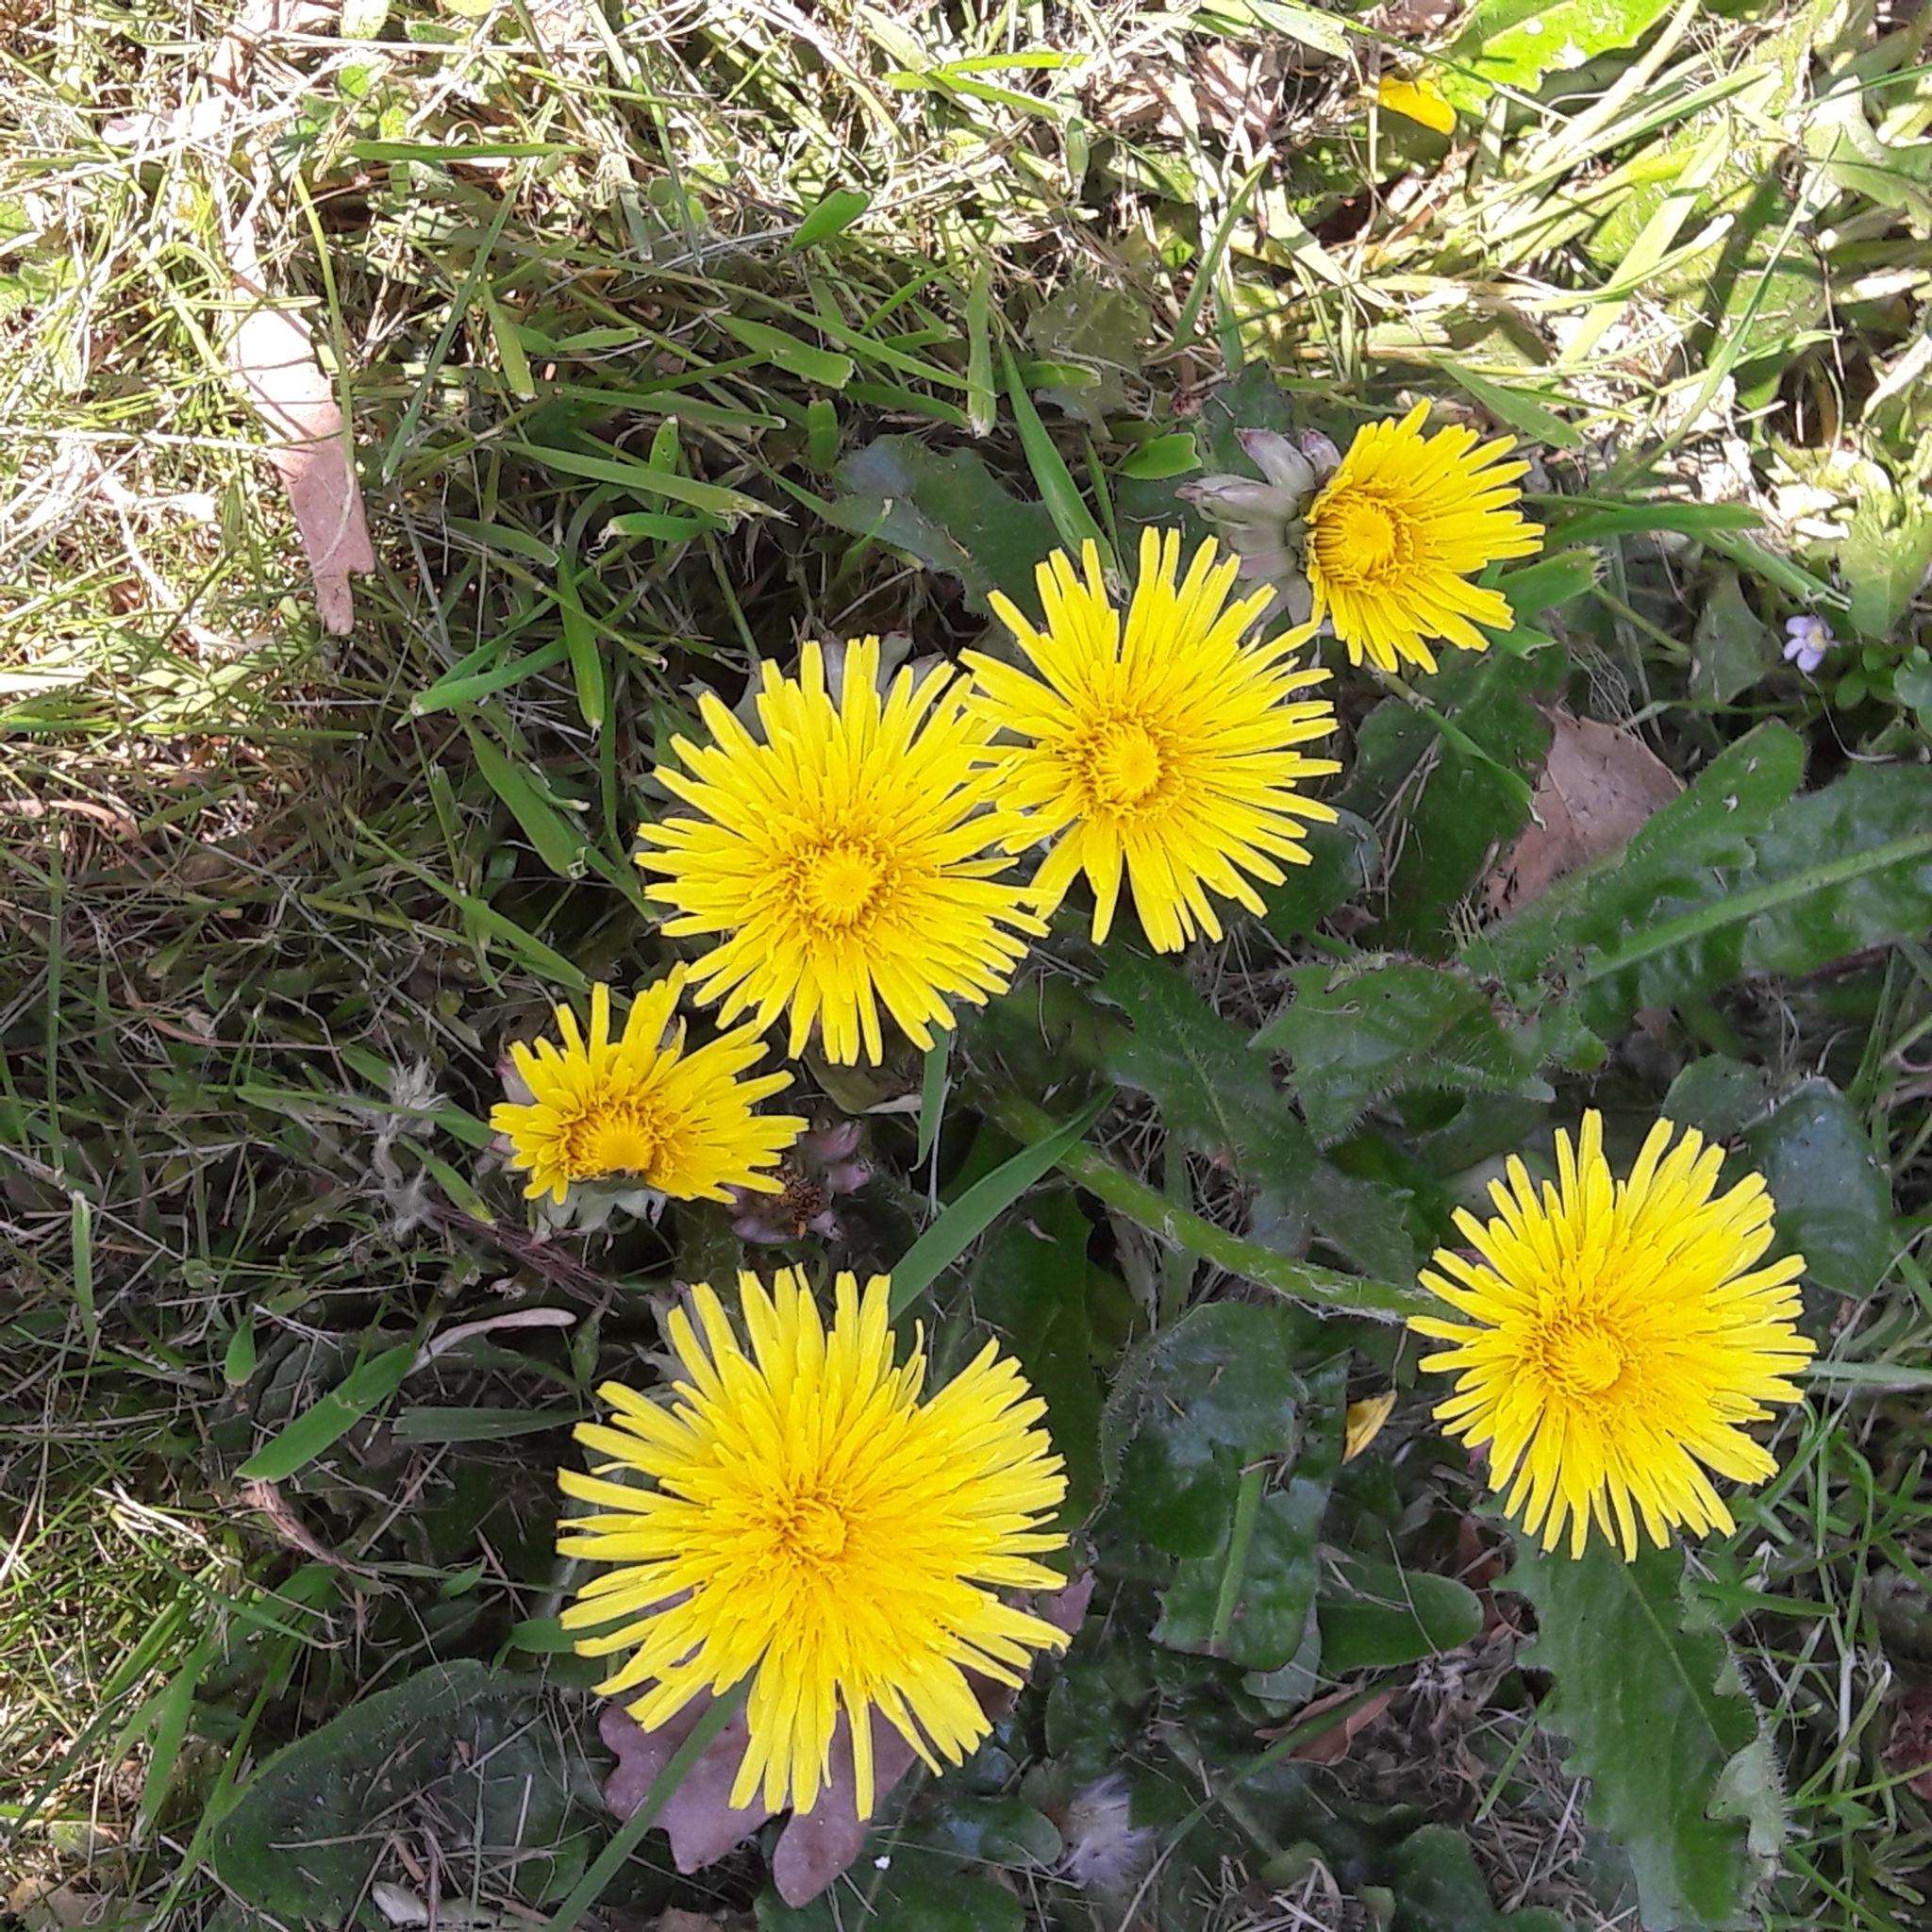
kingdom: Plantae
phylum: Tracheophyta
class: Magnoliopsida
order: Asterales
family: Asteraceae
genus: Taraxacum
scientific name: Taraxacum officinale
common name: Common dandelion
